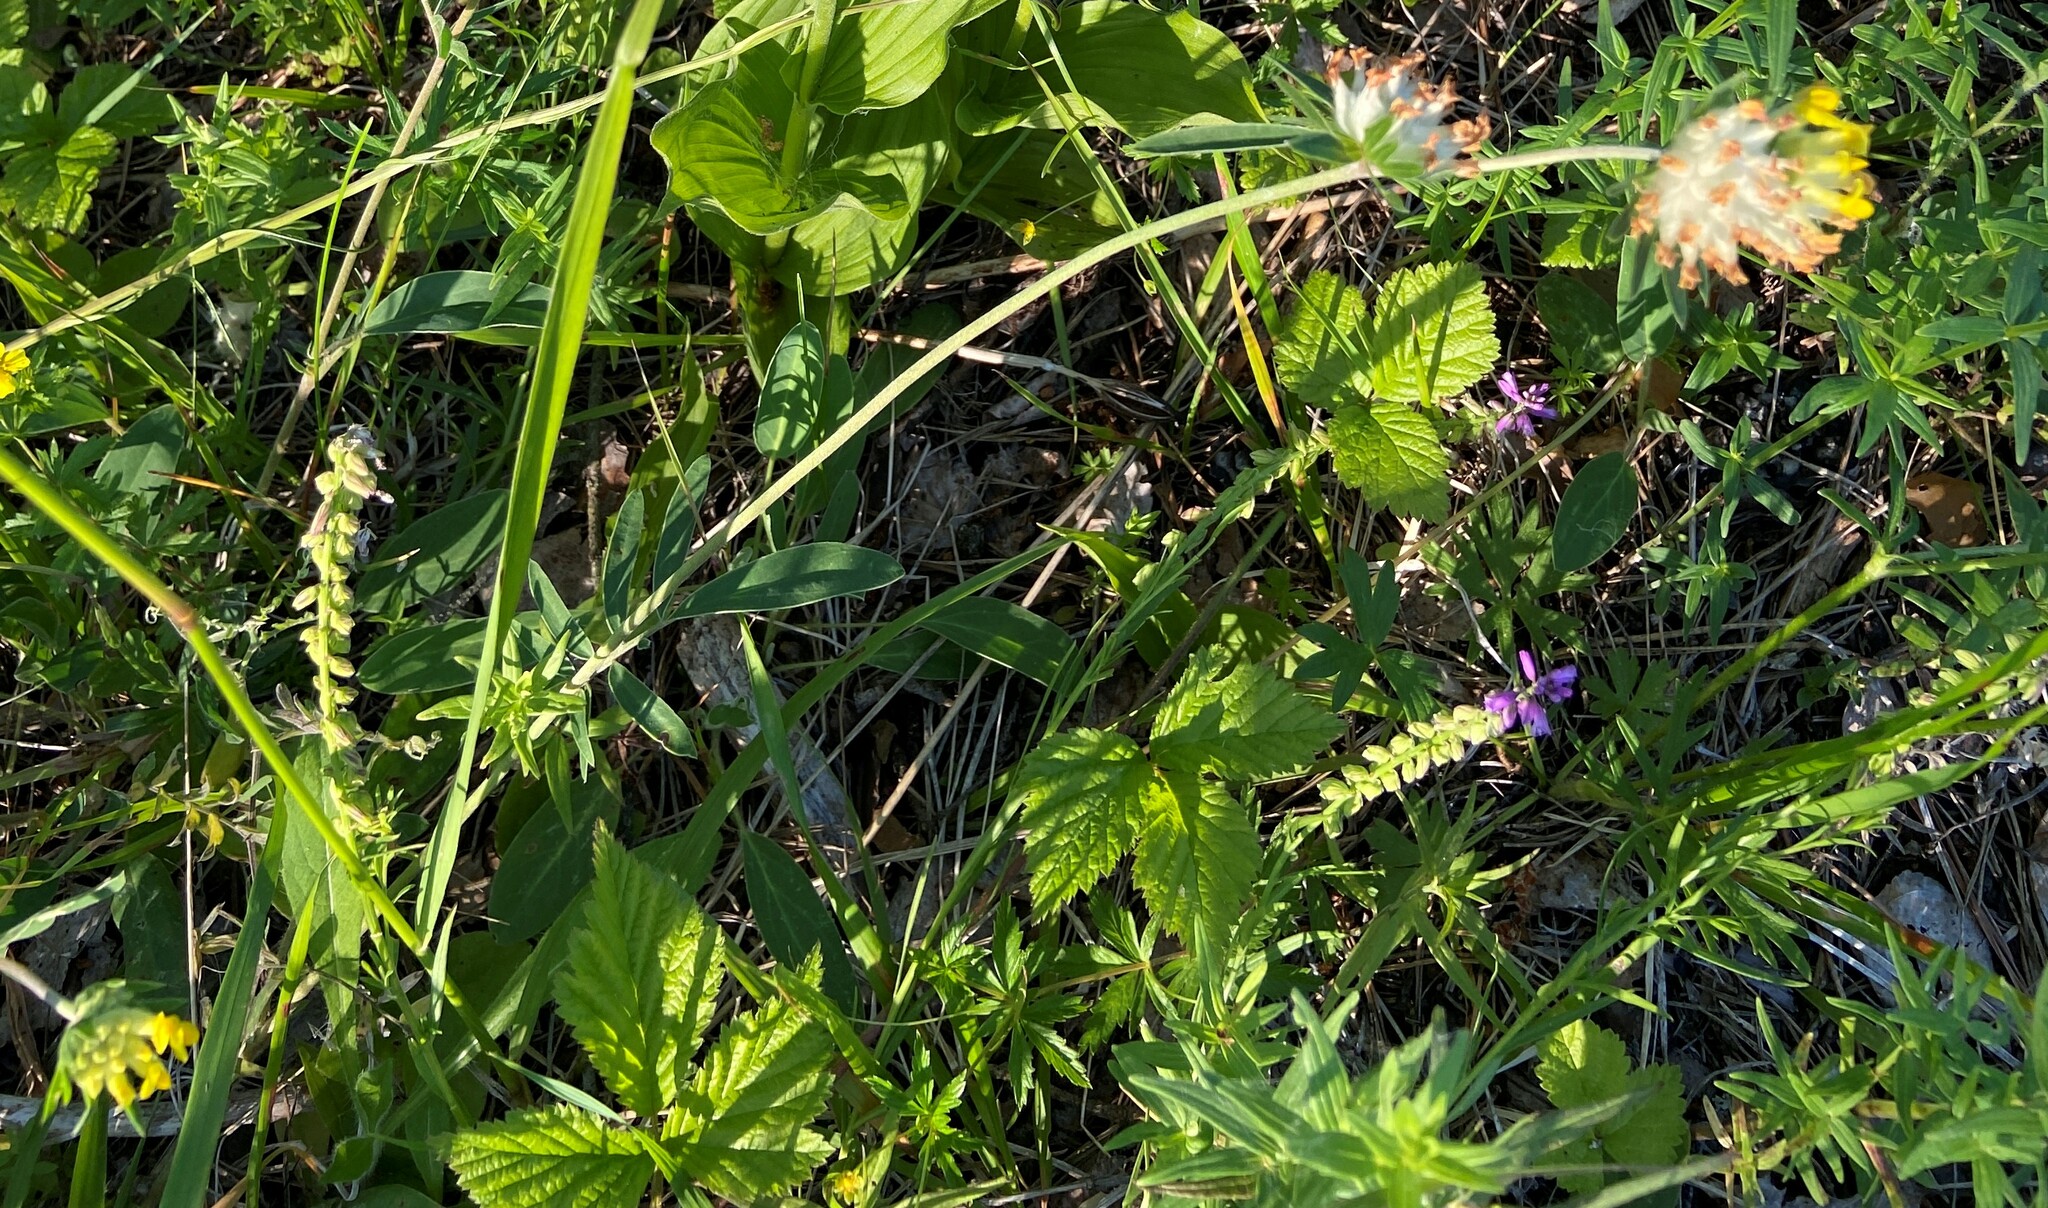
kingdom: Plantae
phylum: Tracheophyta
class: Magnoliopsida
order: Fabales
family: Fabaceae
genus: Anthyllis
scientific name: Anthyllis vulneraria
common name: Kidney vetch
